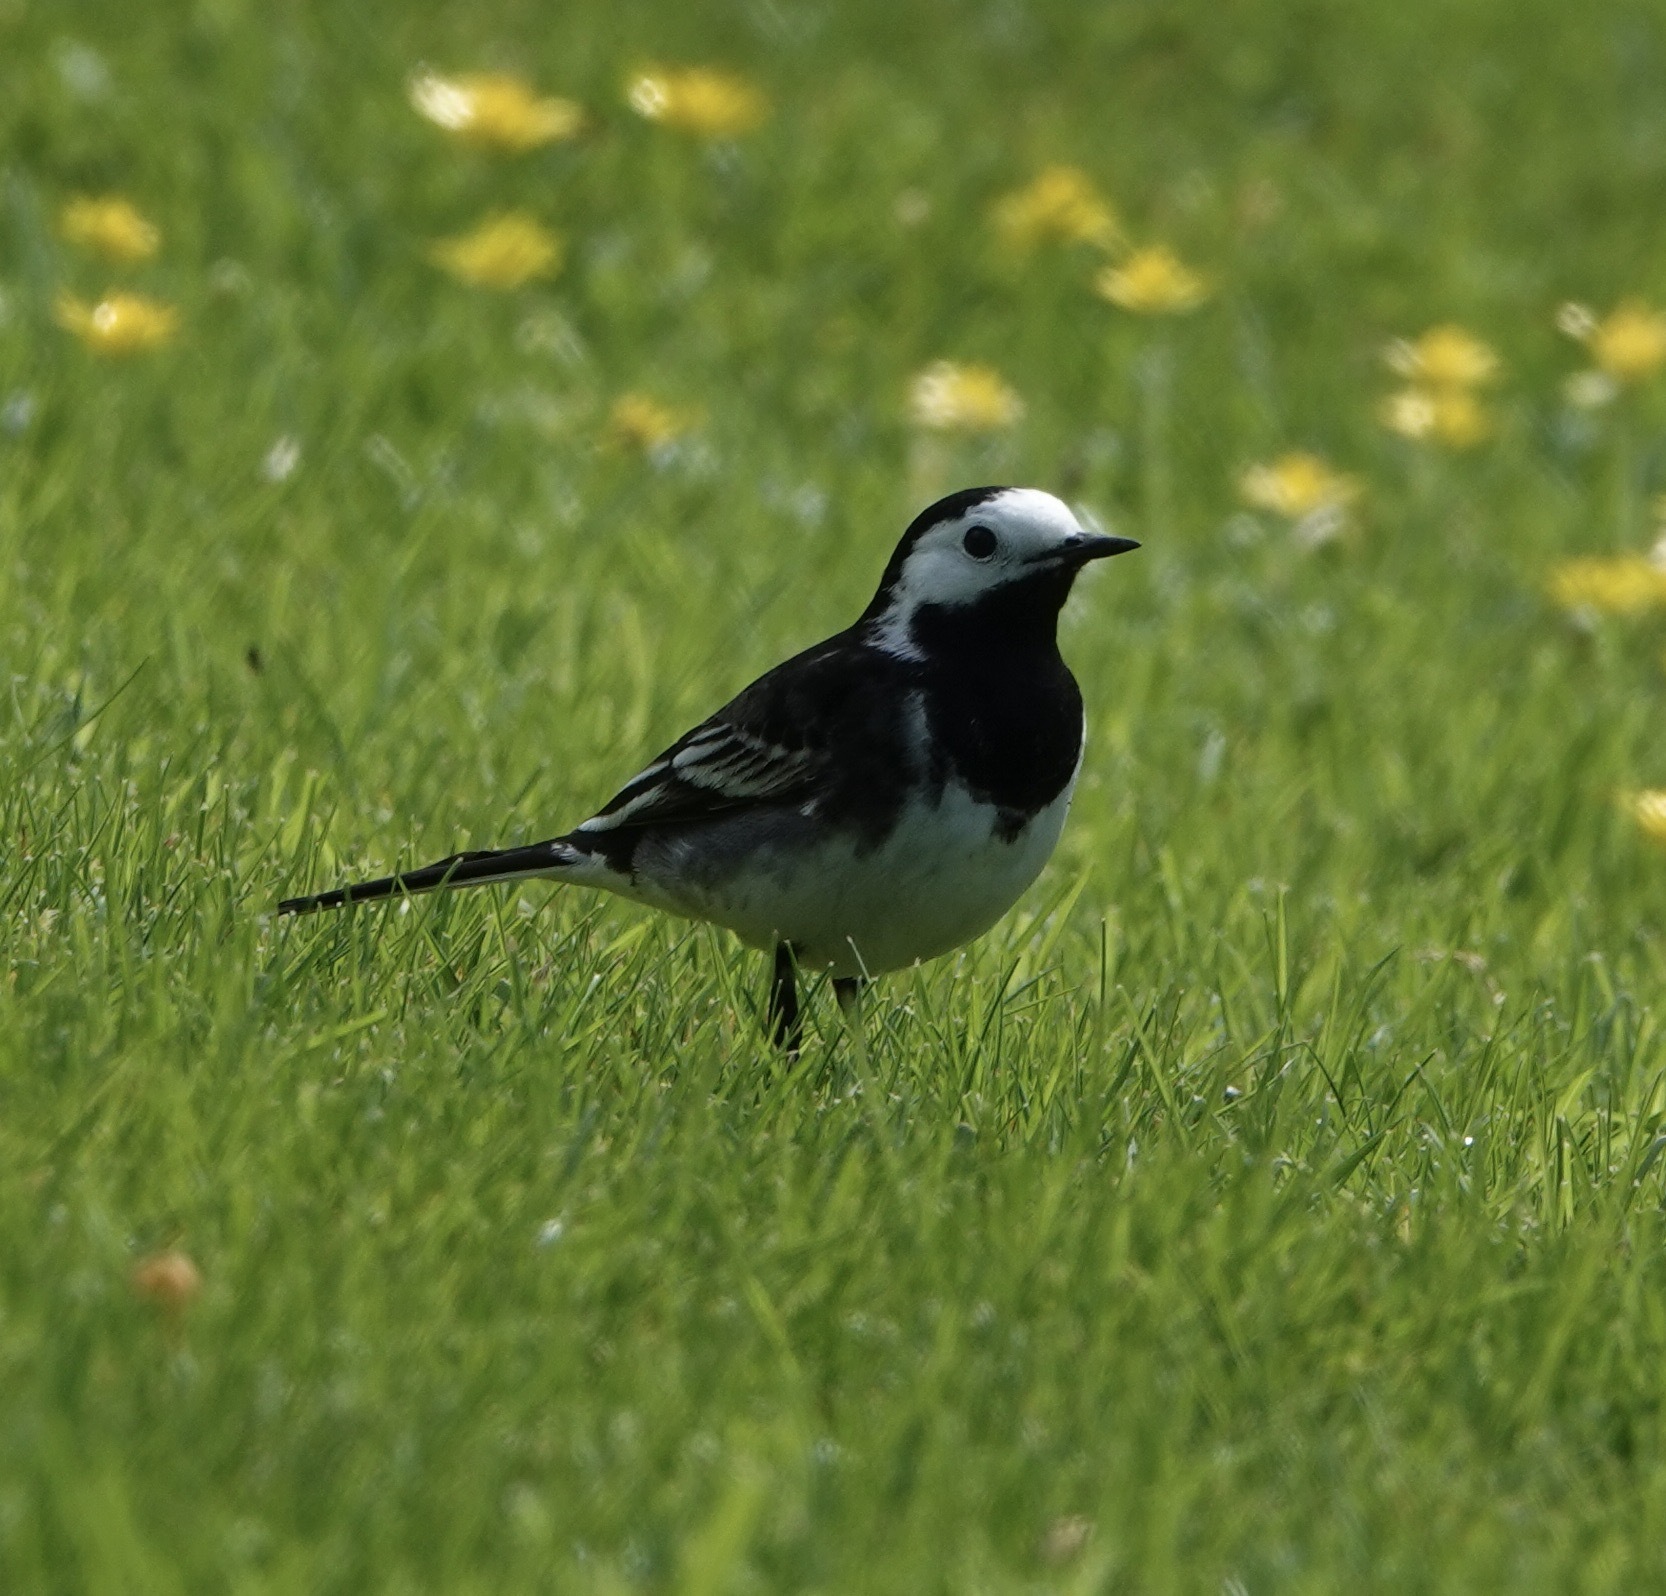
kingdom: Animalia
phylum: Chordata
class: Aves
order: Passeriformes
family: Motacillidae
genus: Motacilla
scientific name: Motacilla alba
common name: White wagtail
